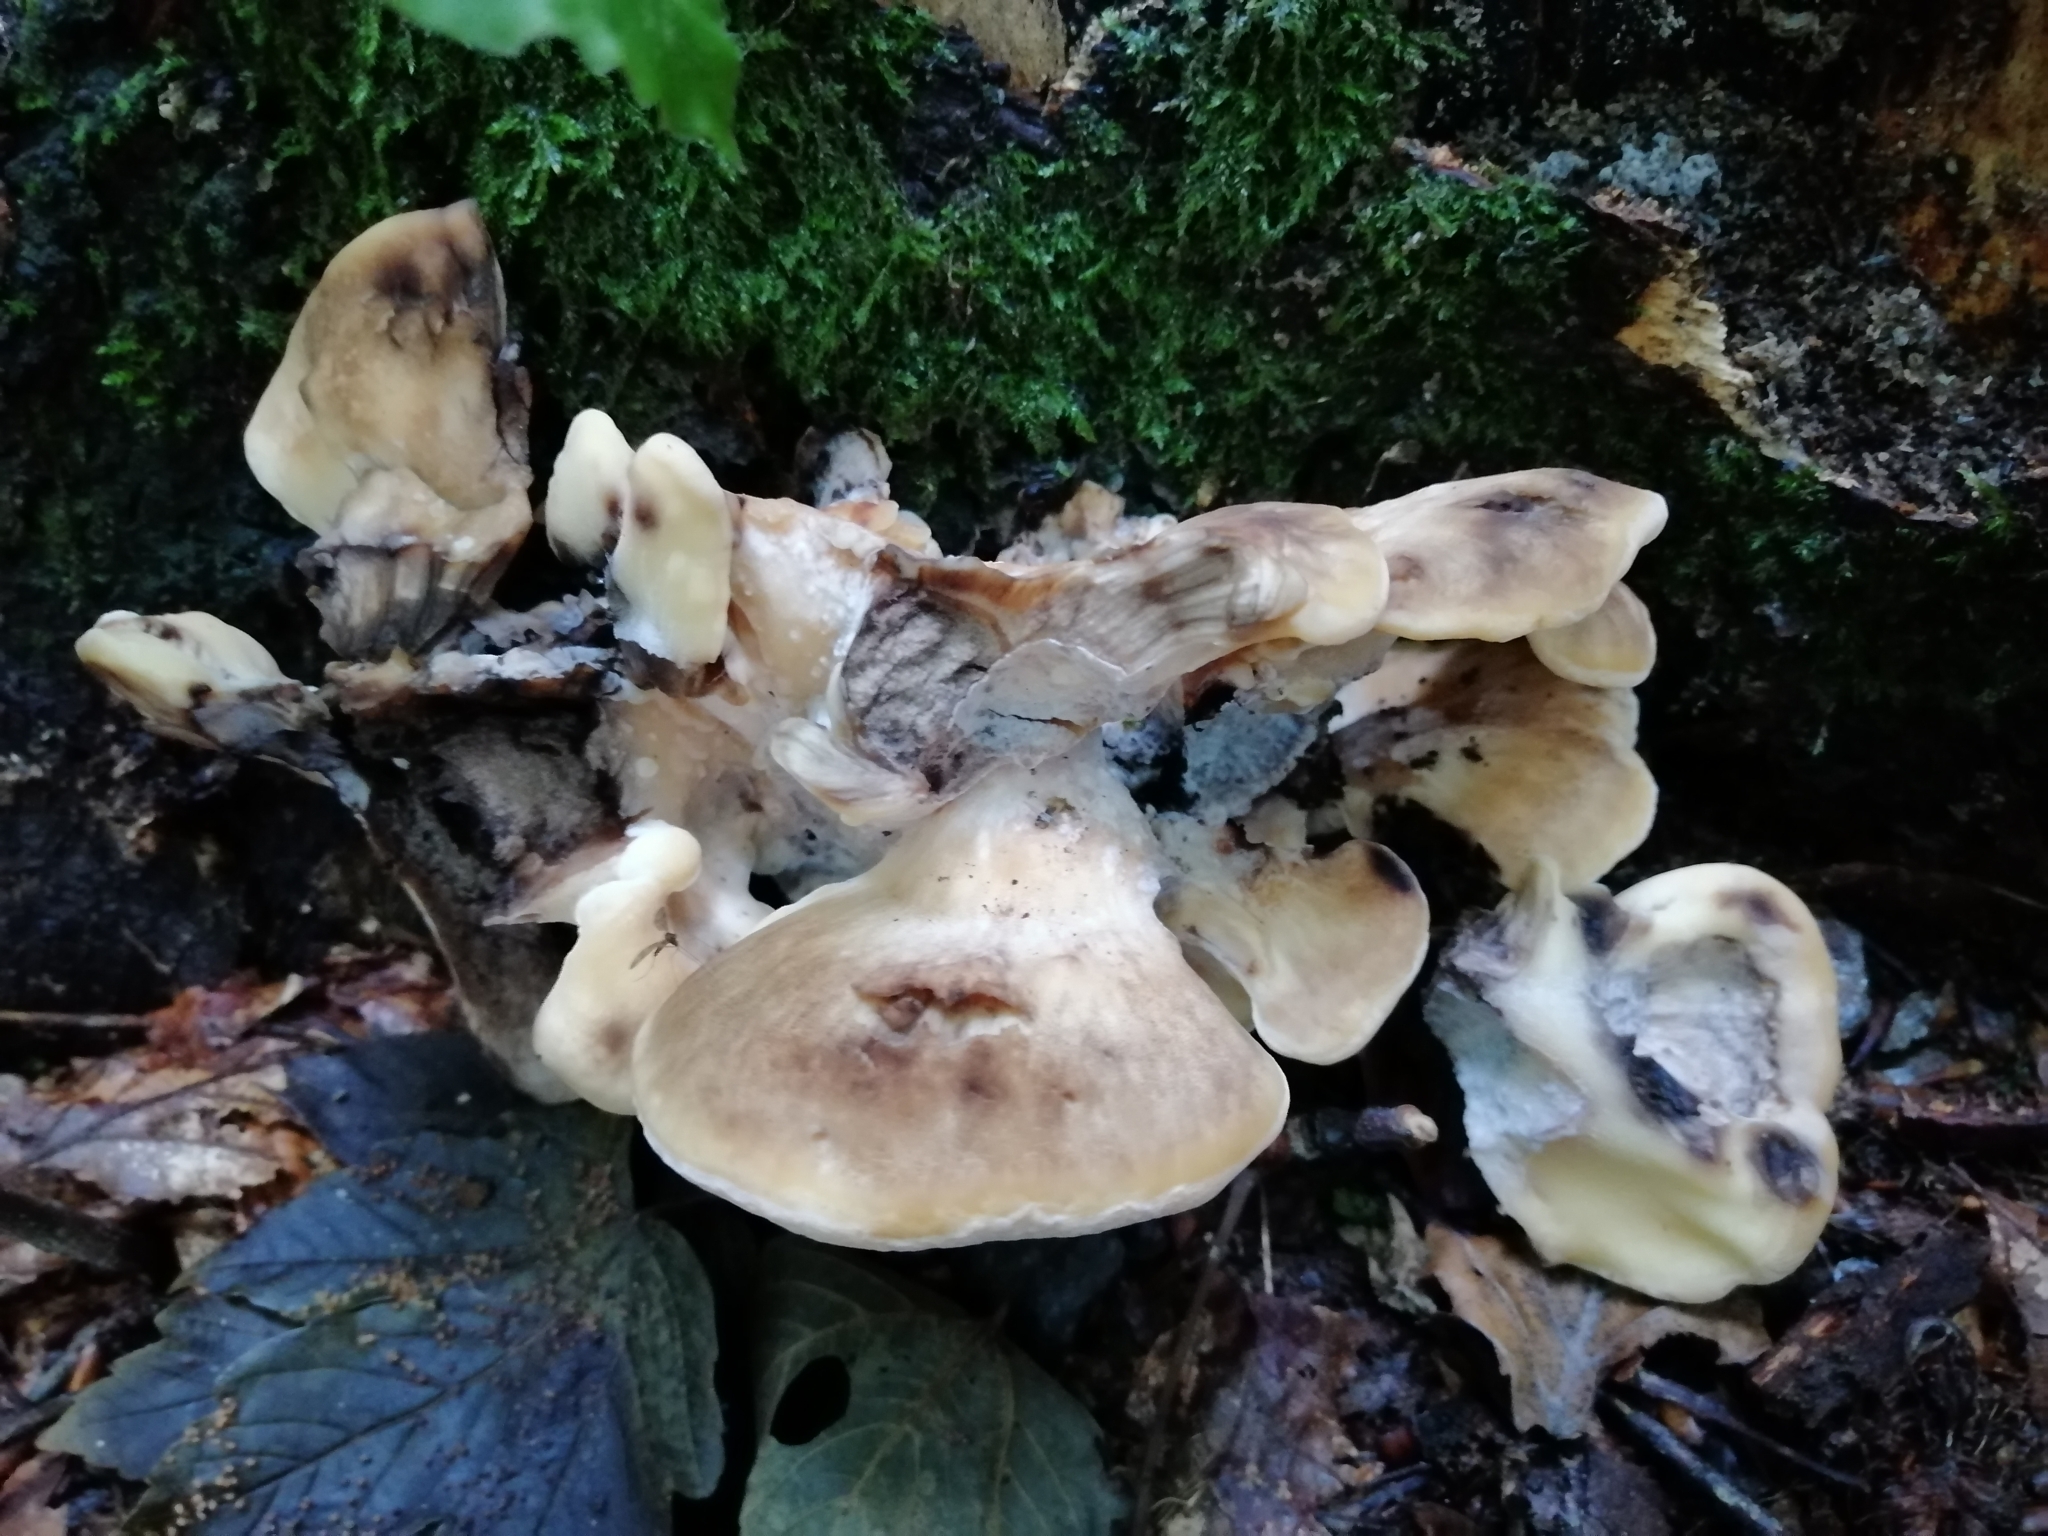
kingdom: Fungi
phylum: Basidiomycota
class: Agaricomycetes
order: Polyporales
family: Meripilaceae
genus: Meripilus
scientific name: Meripilus giganteus
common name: Giant polypore
